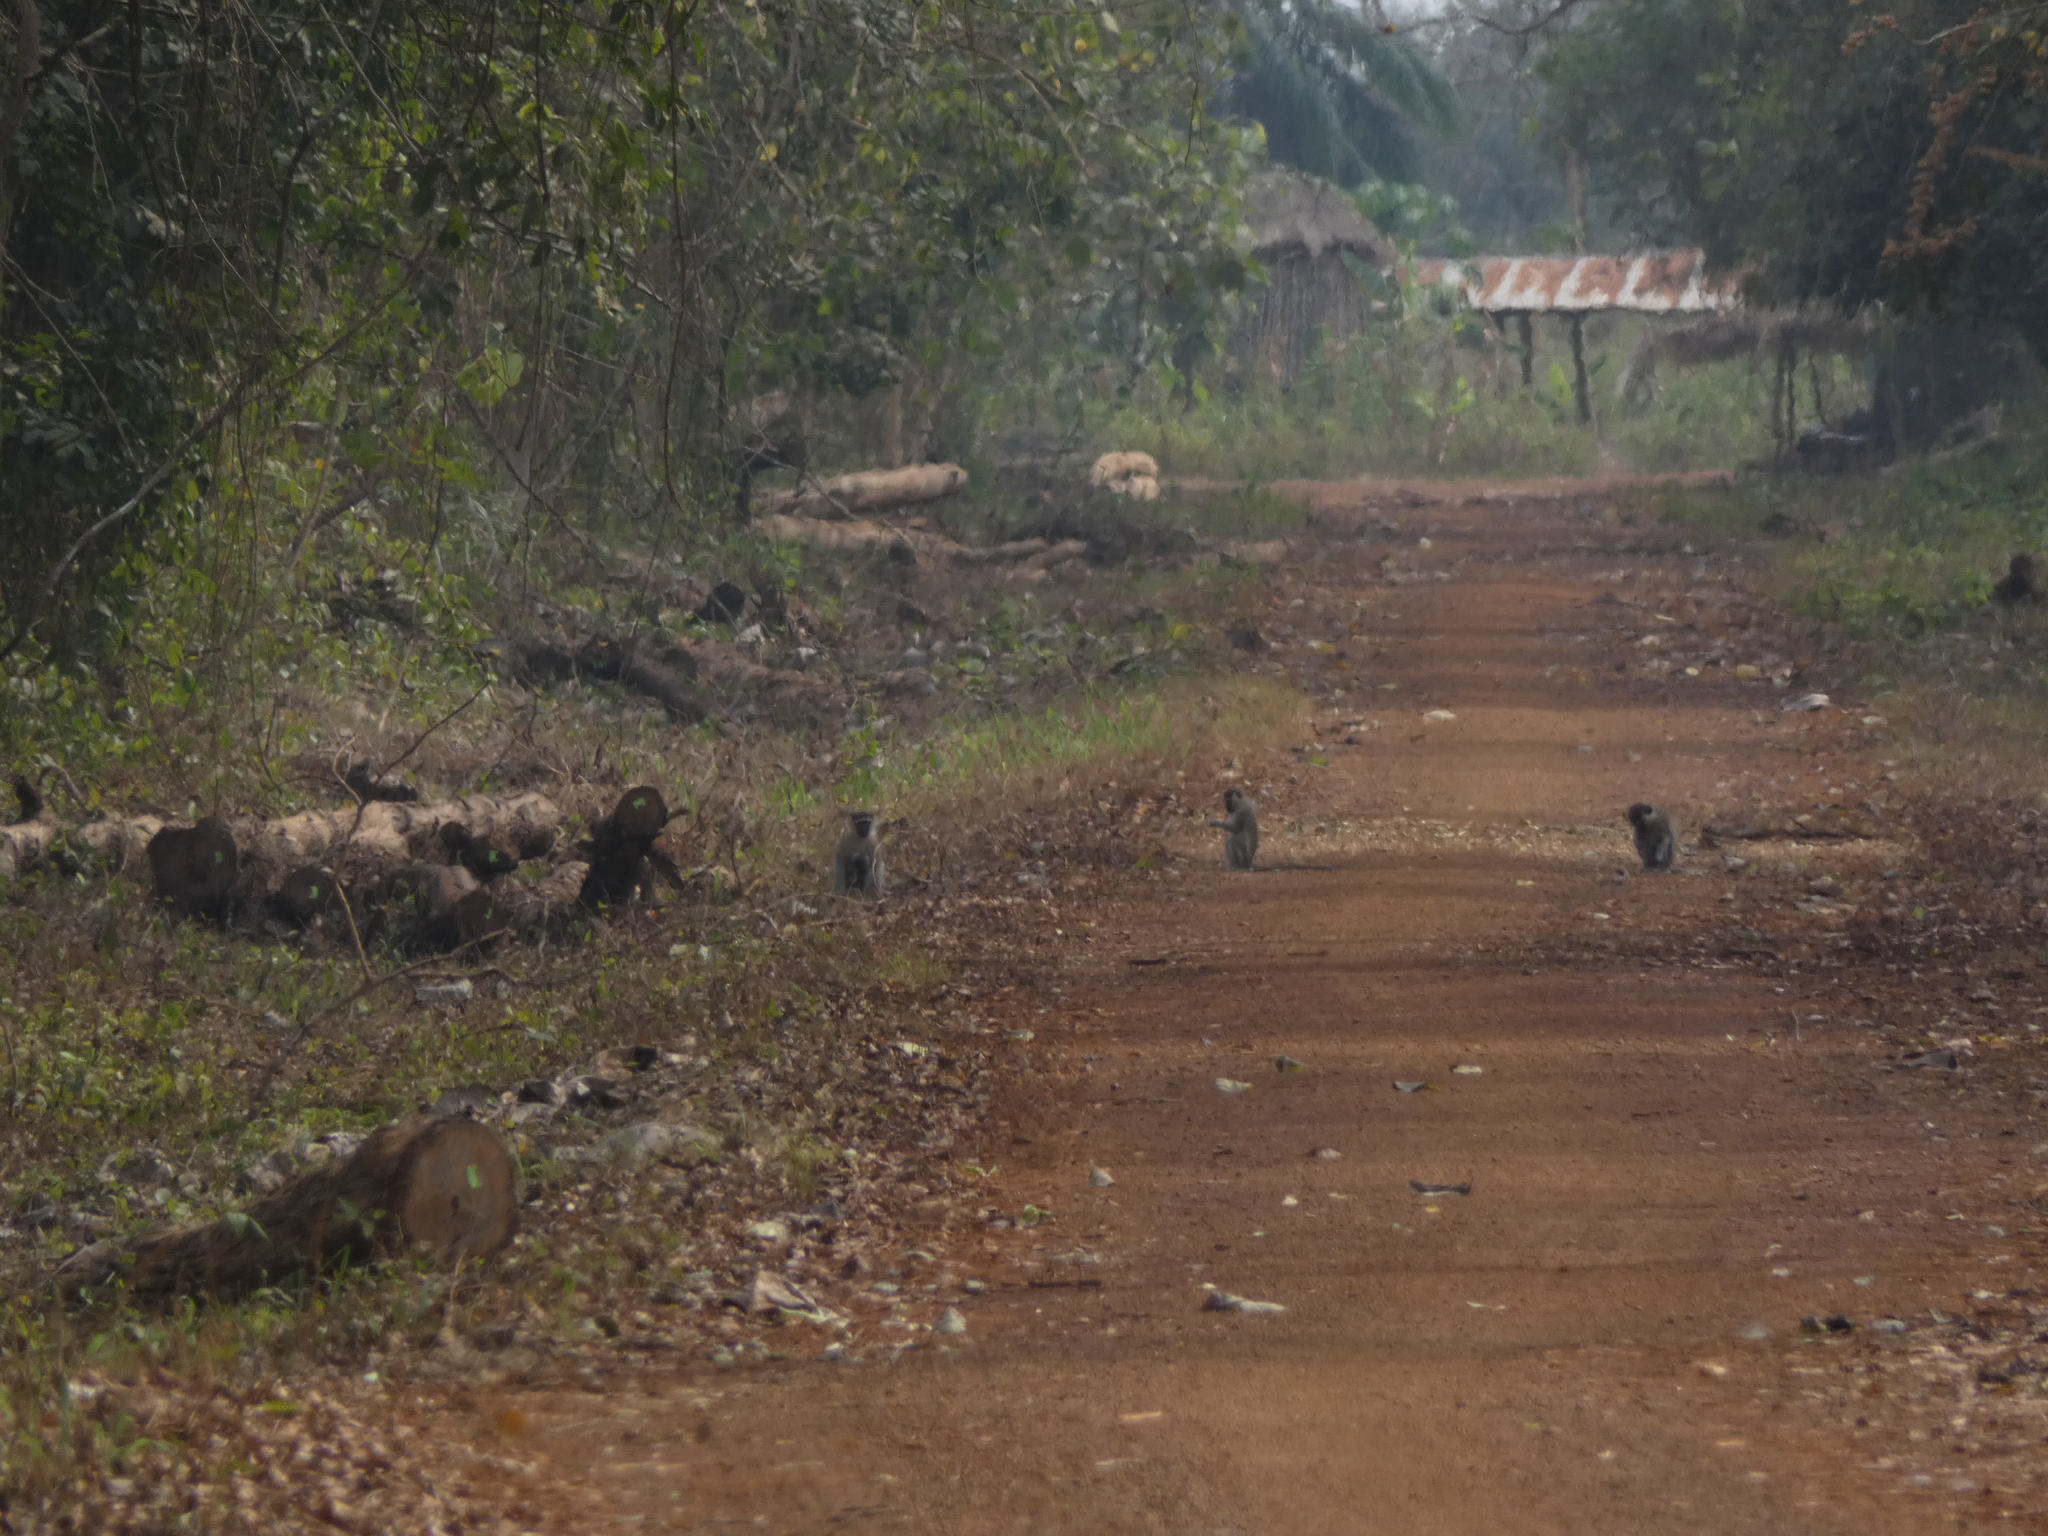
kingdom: Animalia
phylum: Chordata
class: Mammalia
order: Primates
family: Cercopithecidae
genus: Chlorocebus
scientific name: Chlorocebus tantalus
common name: Tantalus monkey
